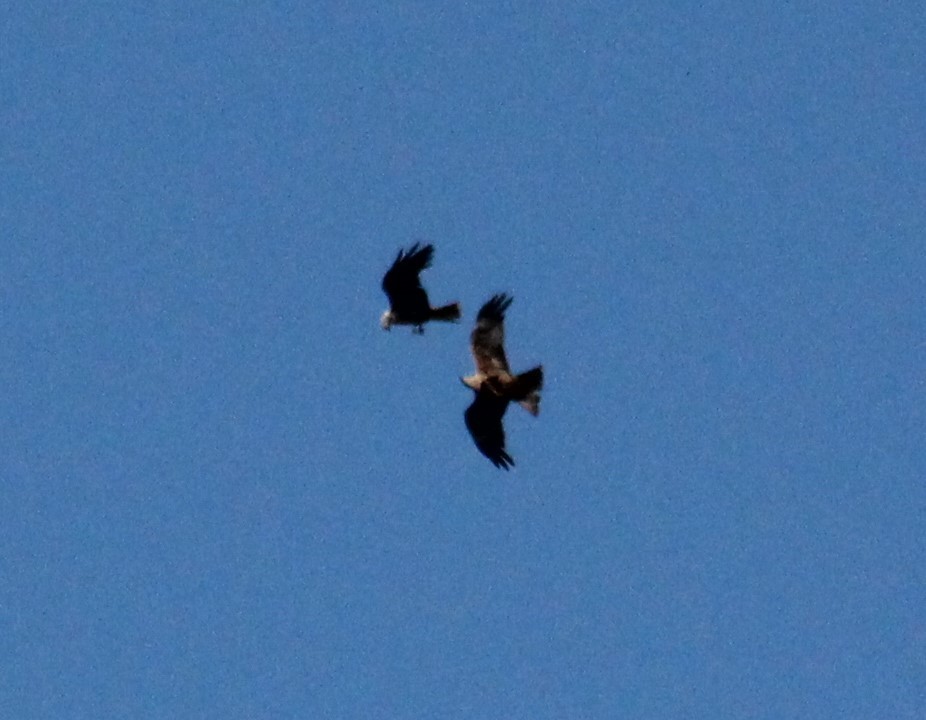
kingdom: Animalia
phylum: Chordata
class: Aves
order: Accipitriformes
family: Accipitridae
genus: Circus
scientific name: Circus aeruginosus
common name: Western marsh harrier
